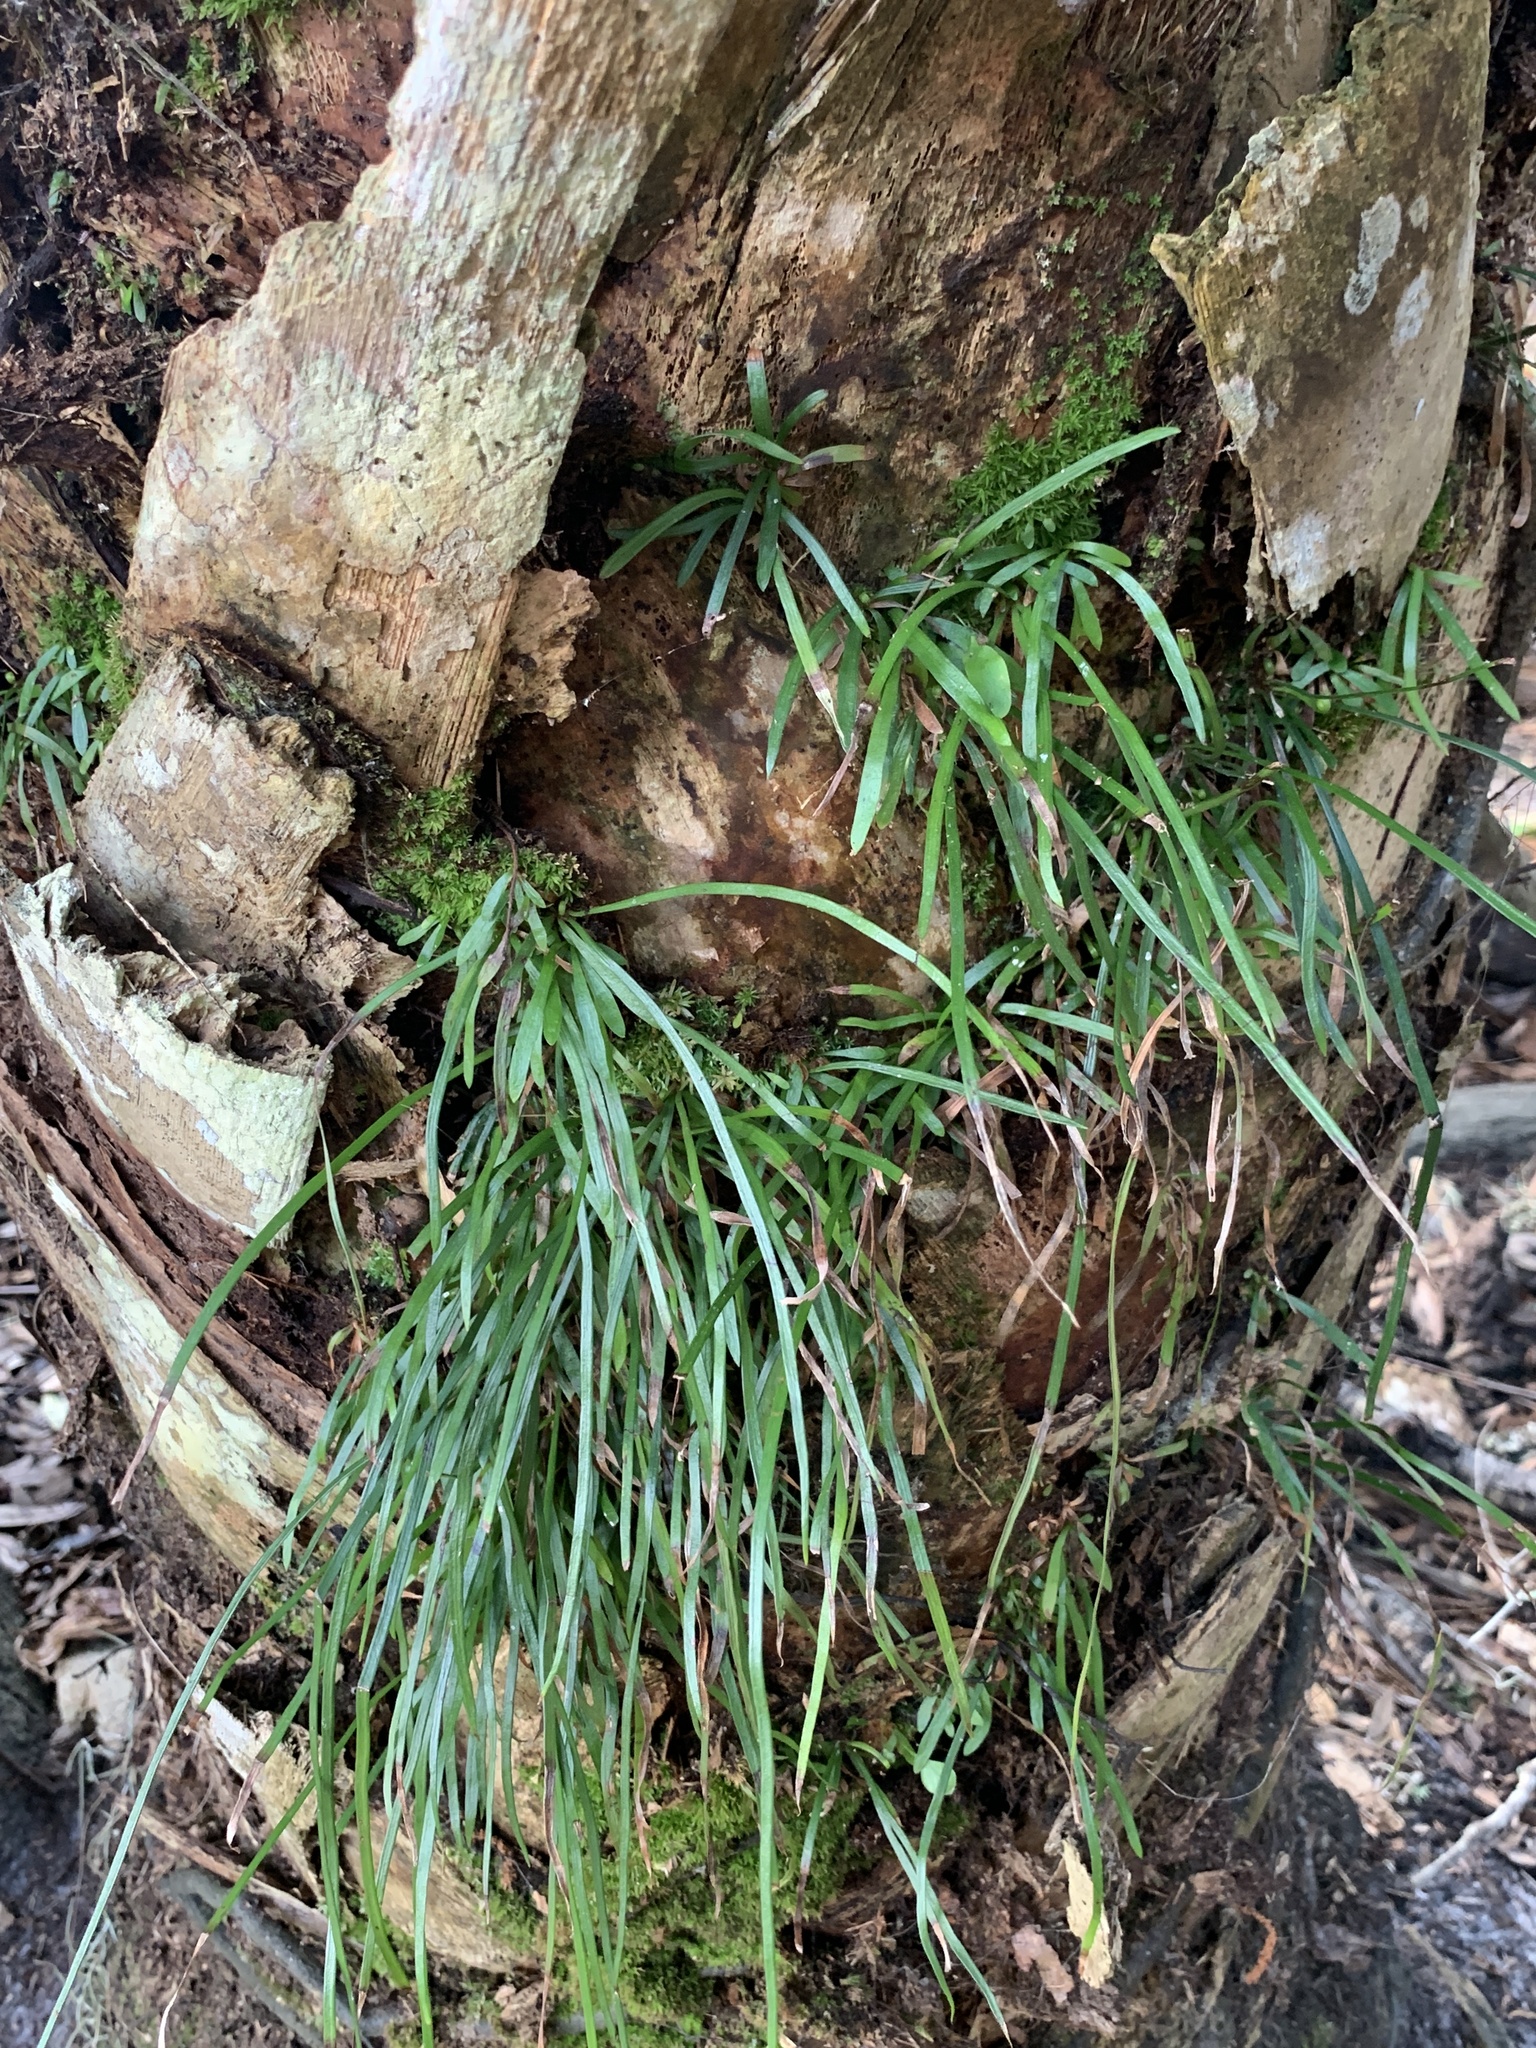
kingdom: Plantae
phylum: Tracheophyta
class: Polypodiopsida
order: Polypodiales
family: Pteridaceae
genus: Vittaria
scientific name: Vittaria lineata
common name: Shoestring fern
